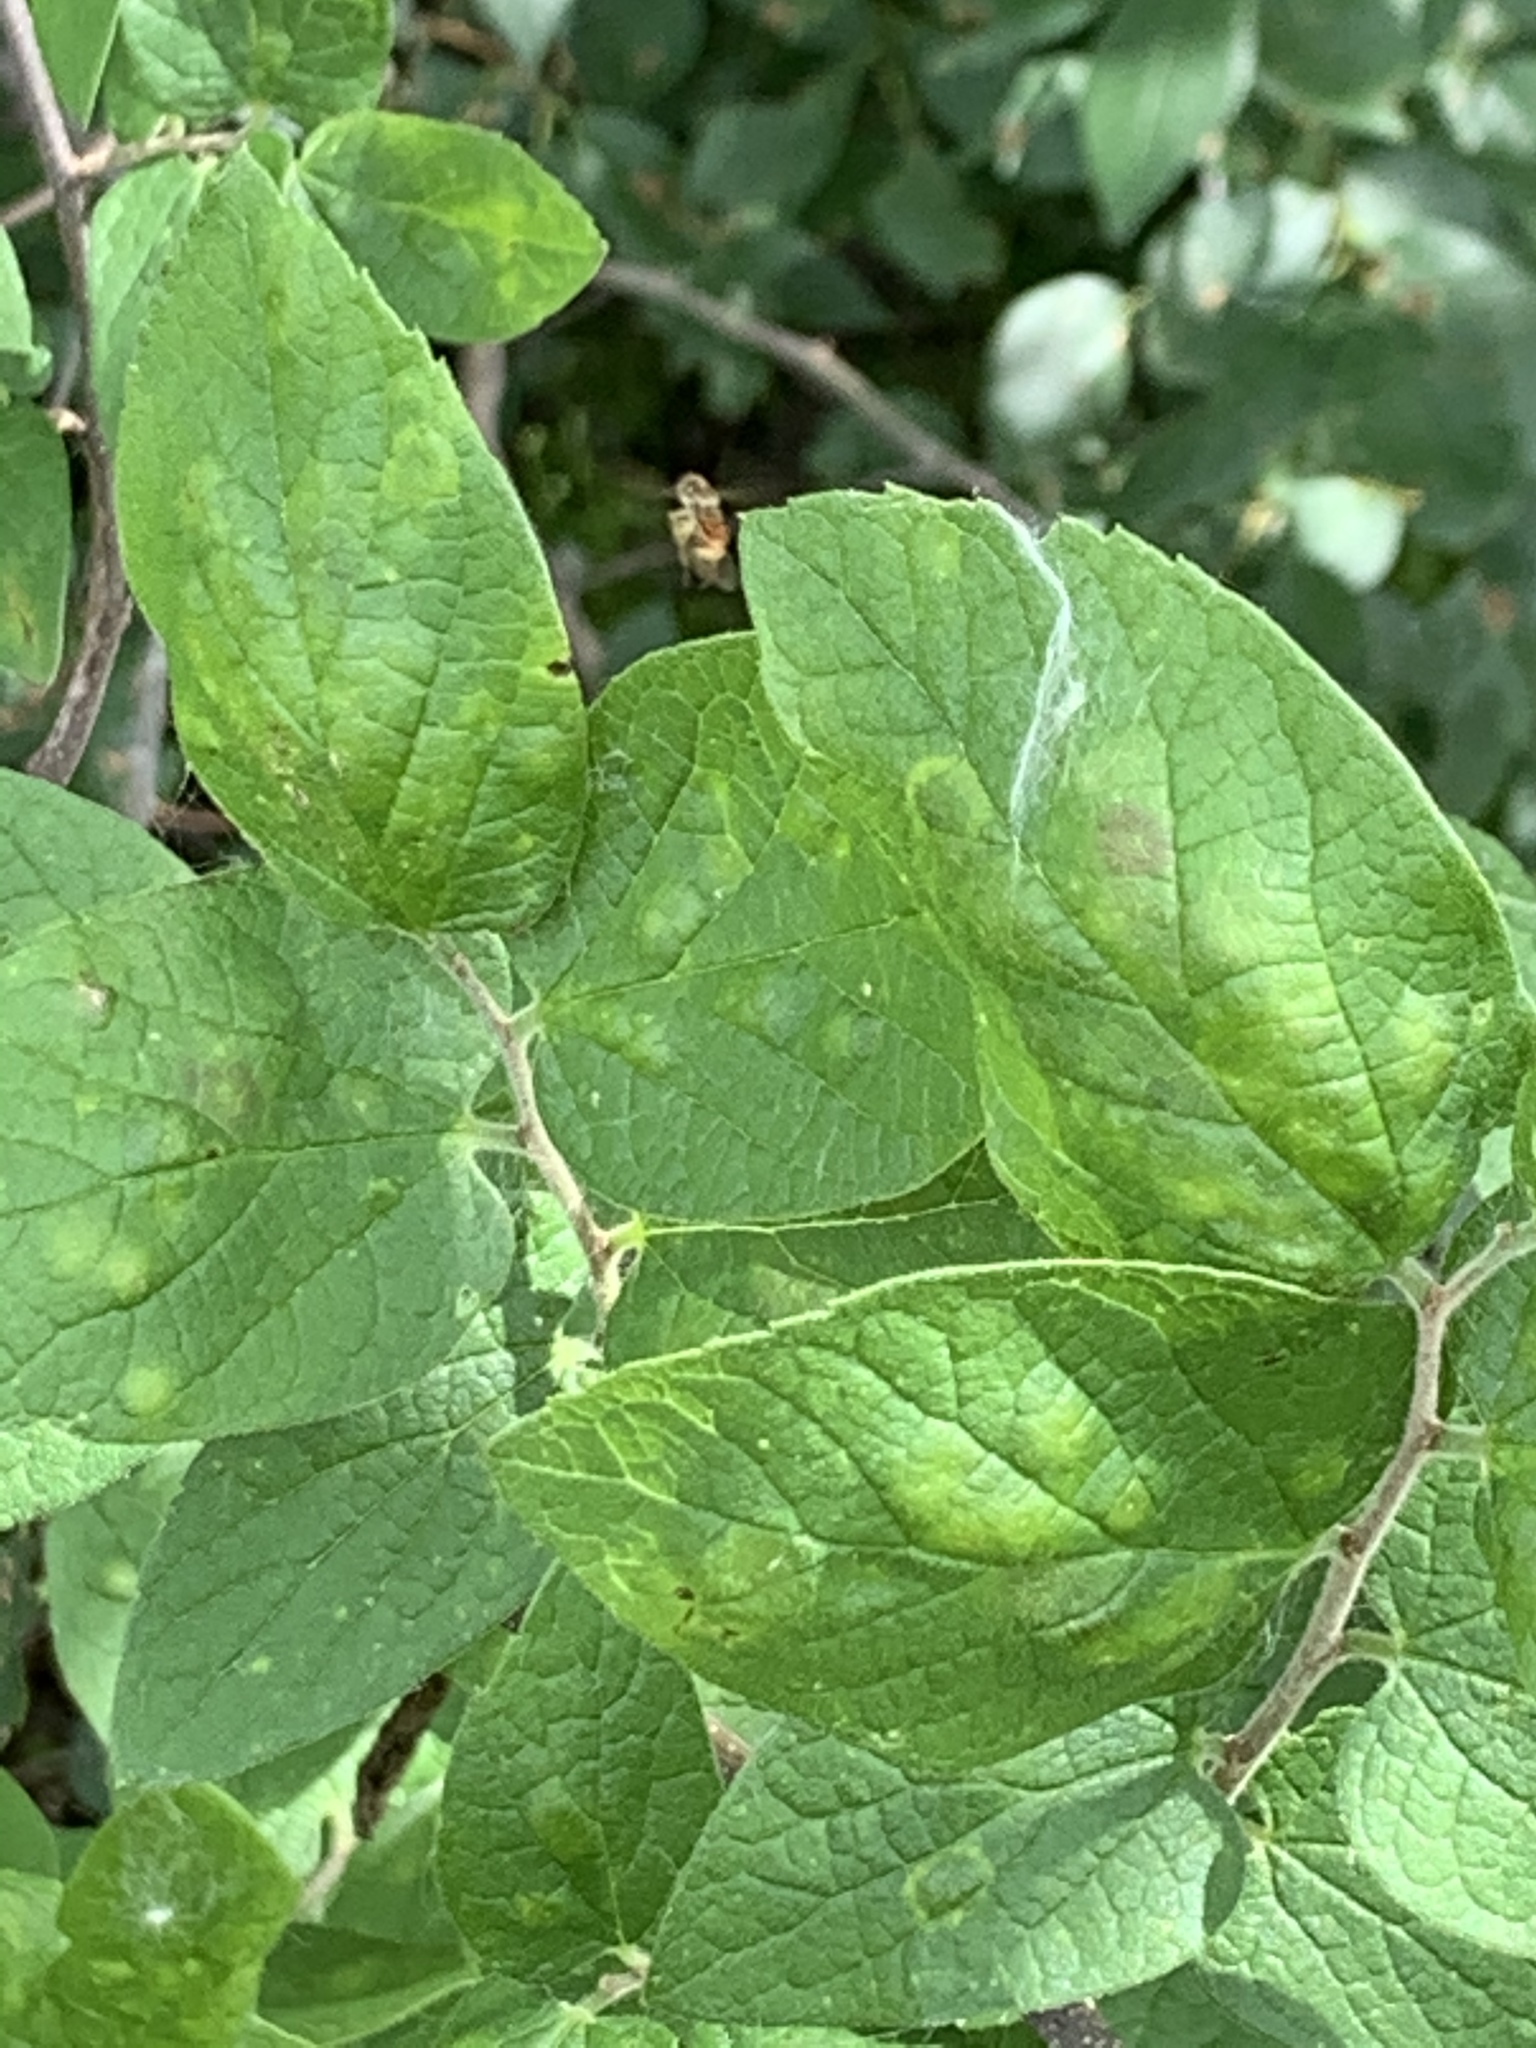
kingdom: Plantae
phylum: Tracheophyta
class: Magnoliopsida
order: Rosales
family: Cannabaceae
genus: Celtis
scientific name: Celtis laevigata
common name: Sugarberry
